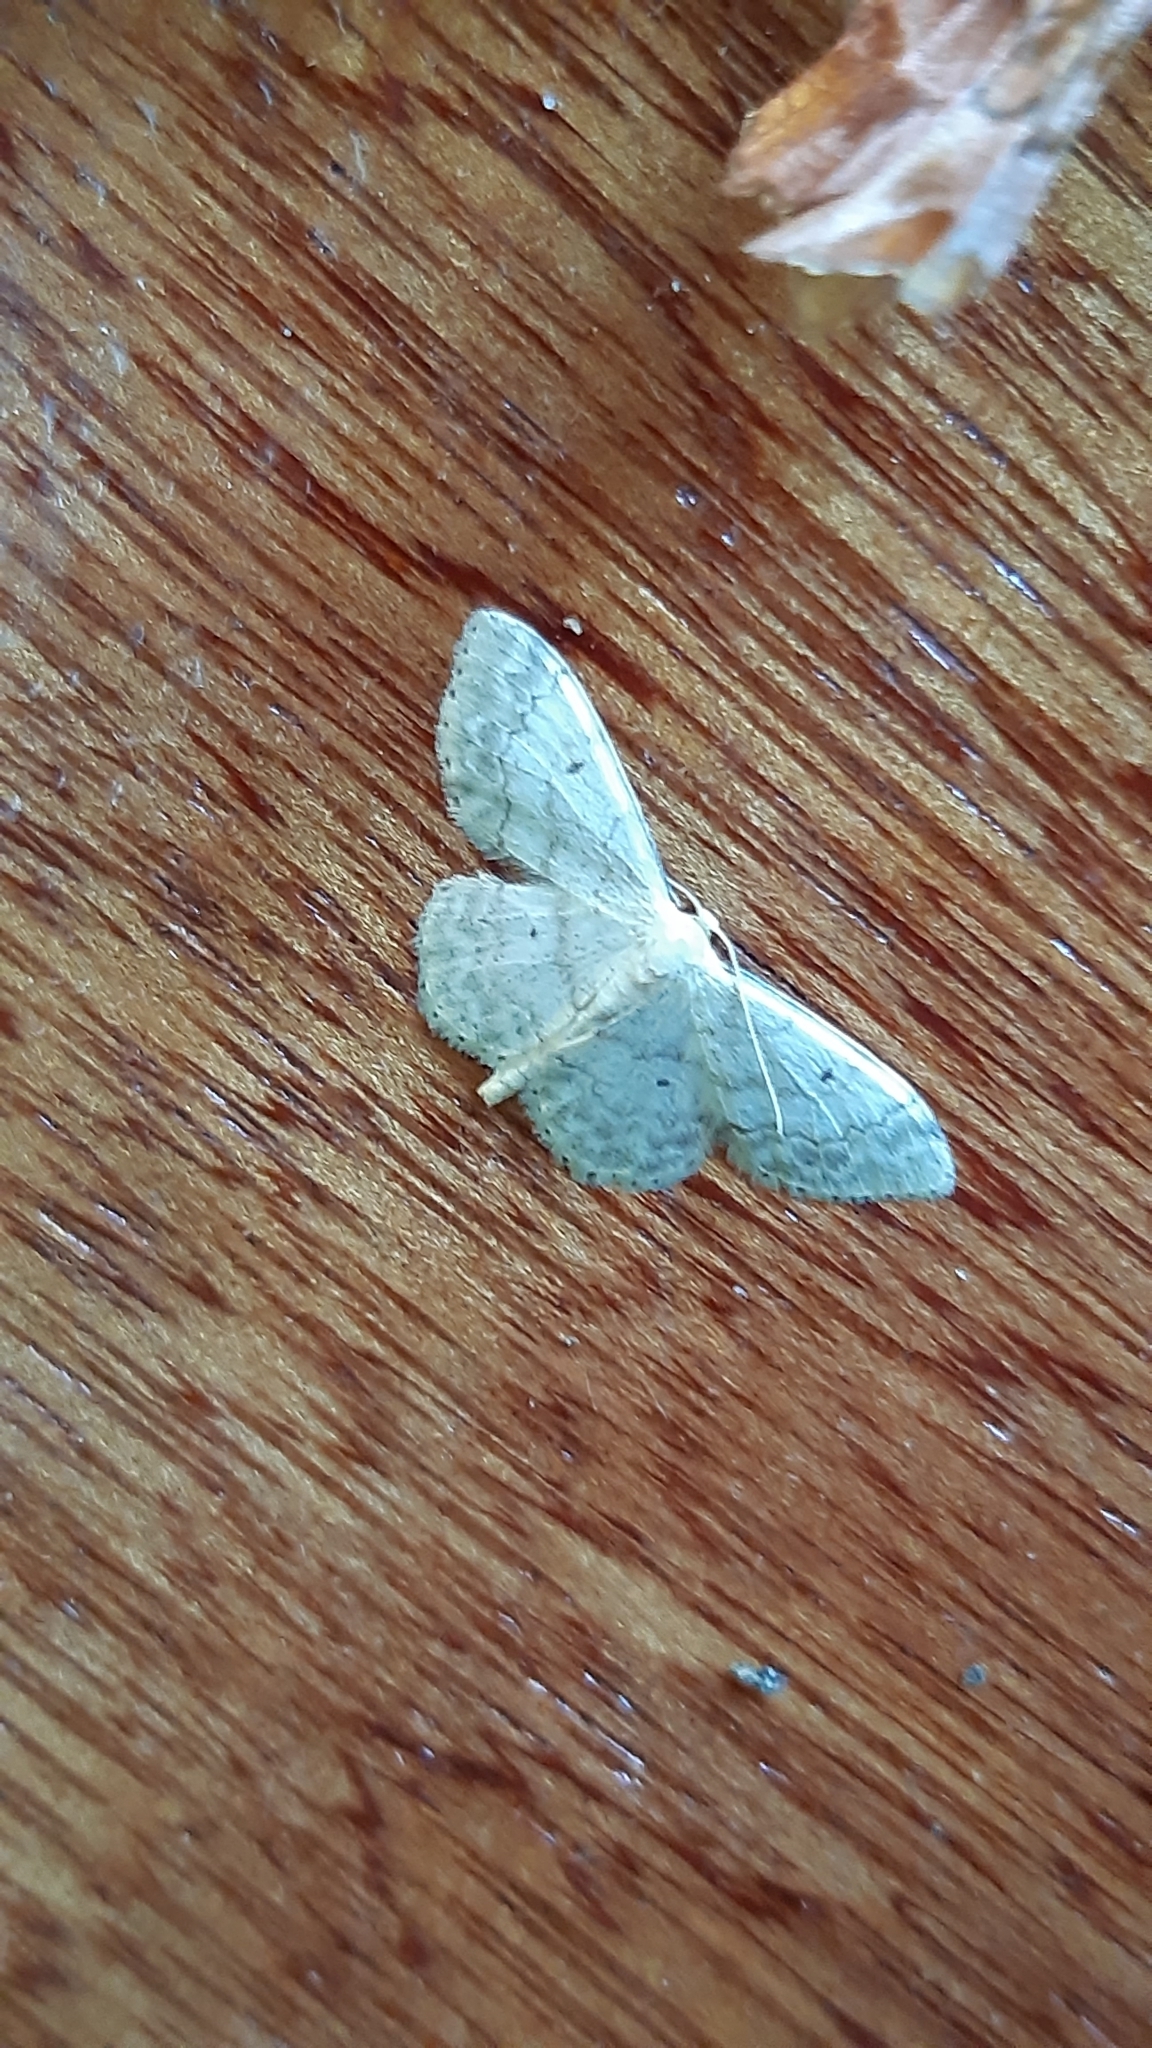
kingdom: Animalia
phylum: Arthropoda
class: Insecta
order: Lepidoptera
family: Geometridae
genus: Idaea
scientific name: Idaea biselata
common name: Small fan-footed wave
